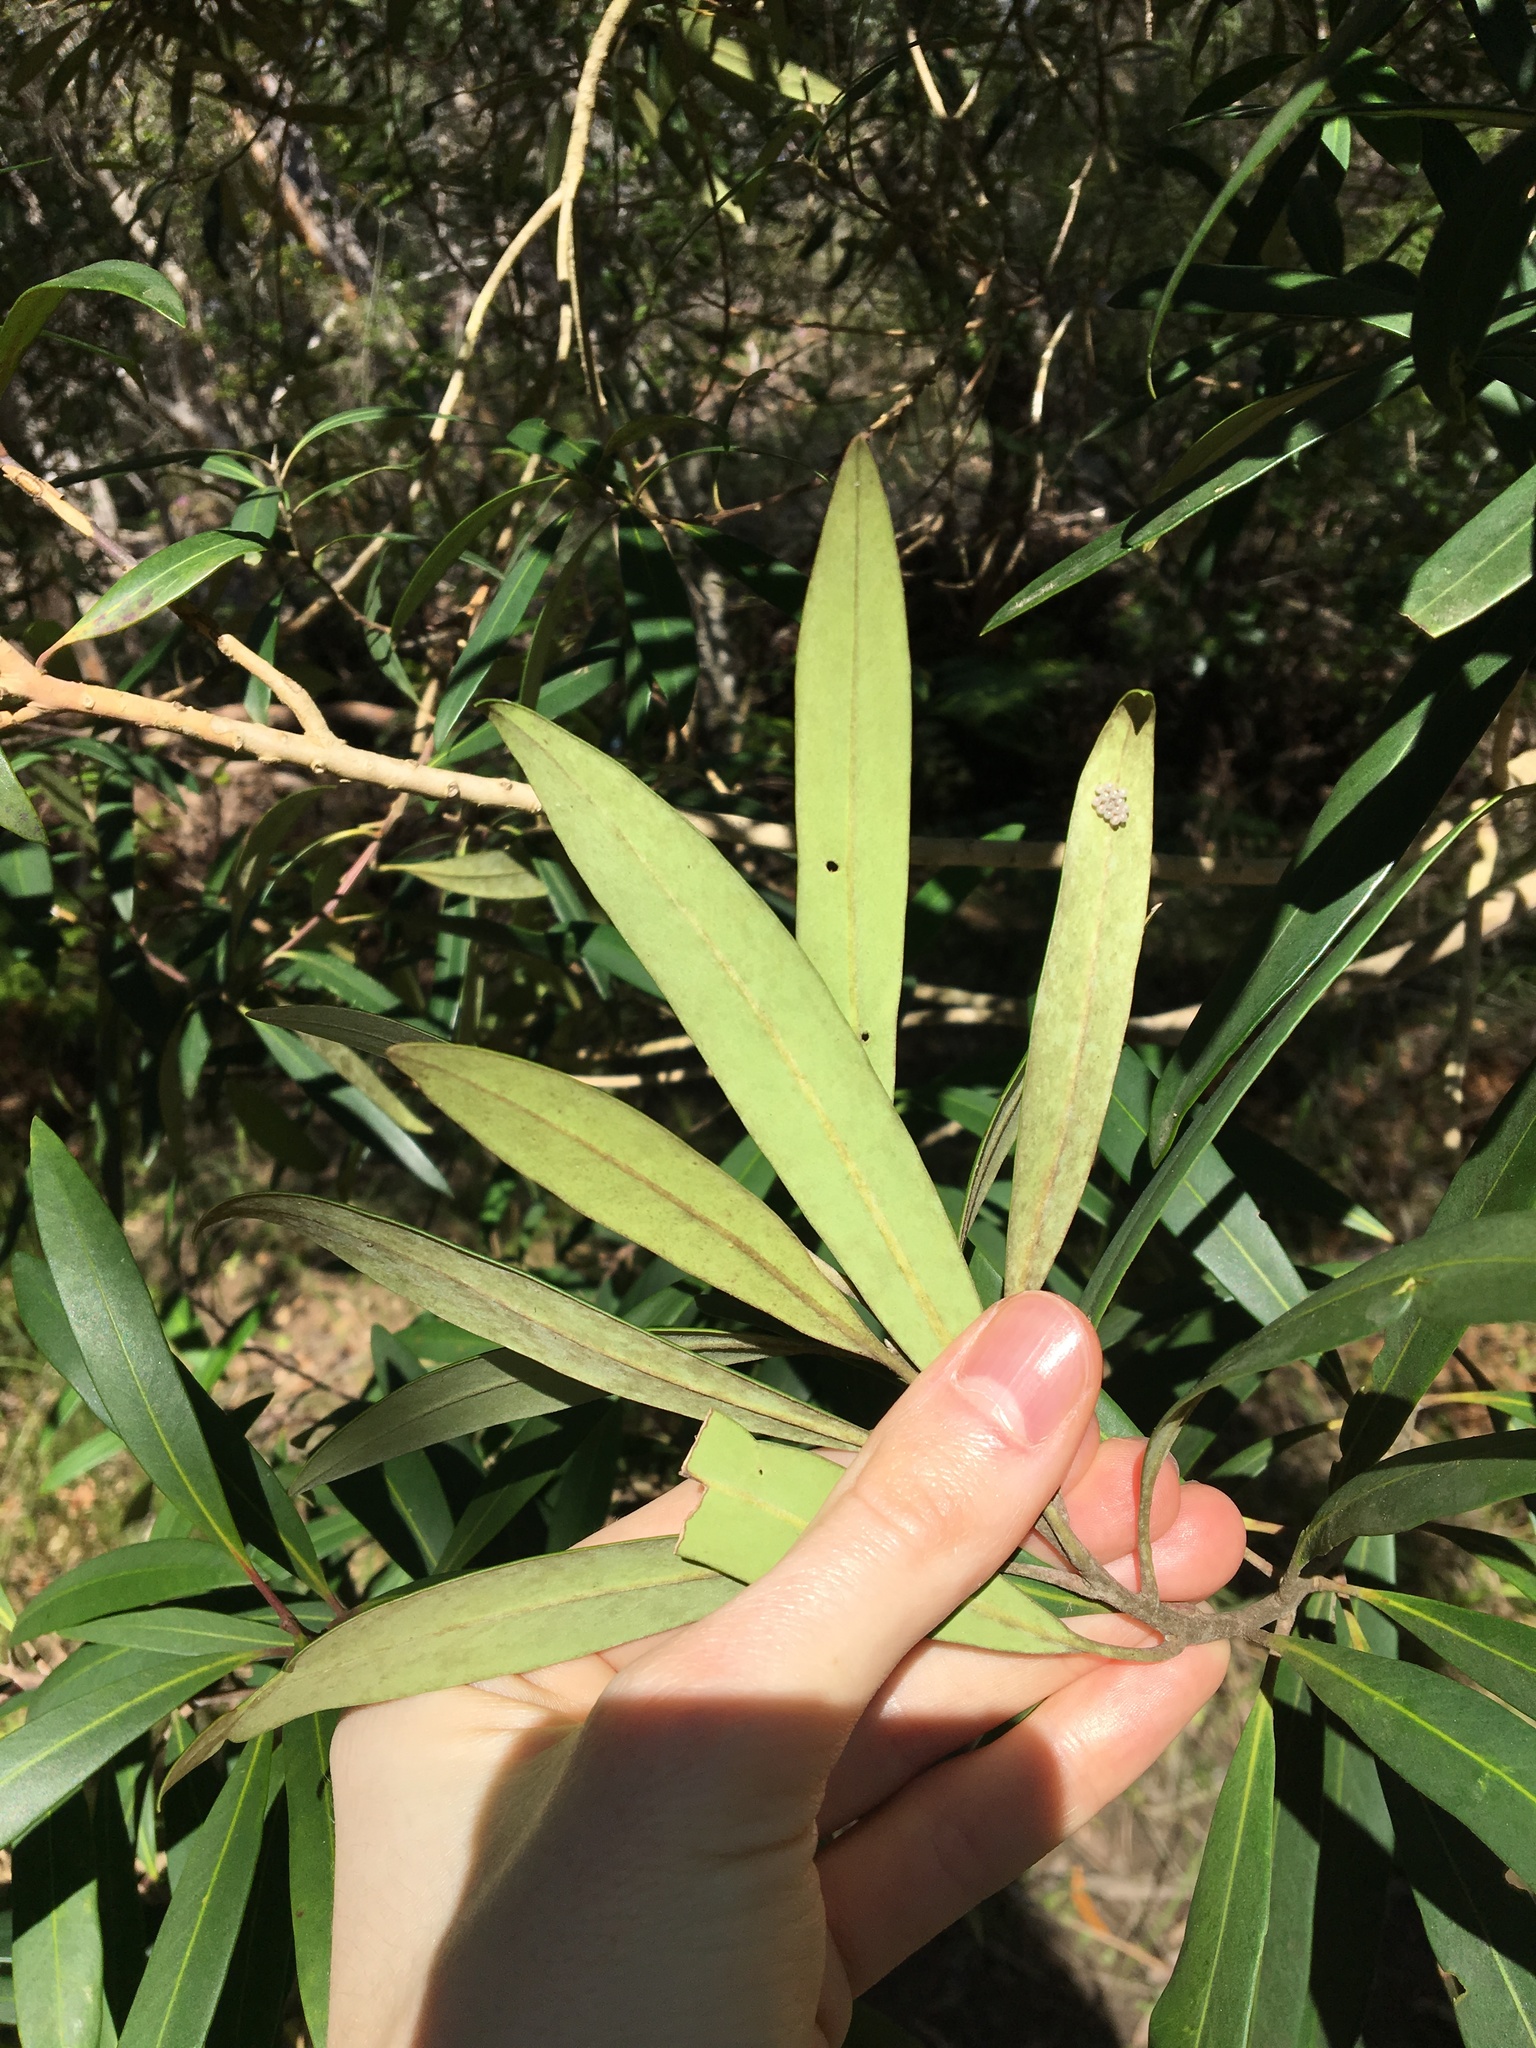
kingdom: Plantae
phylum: Tracheophyta
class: Magnoliopsida
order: Myrtales
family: Myrtaceae
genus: Tristaniopsis
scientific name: Tristaniopsis laurina
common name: Water-gum
